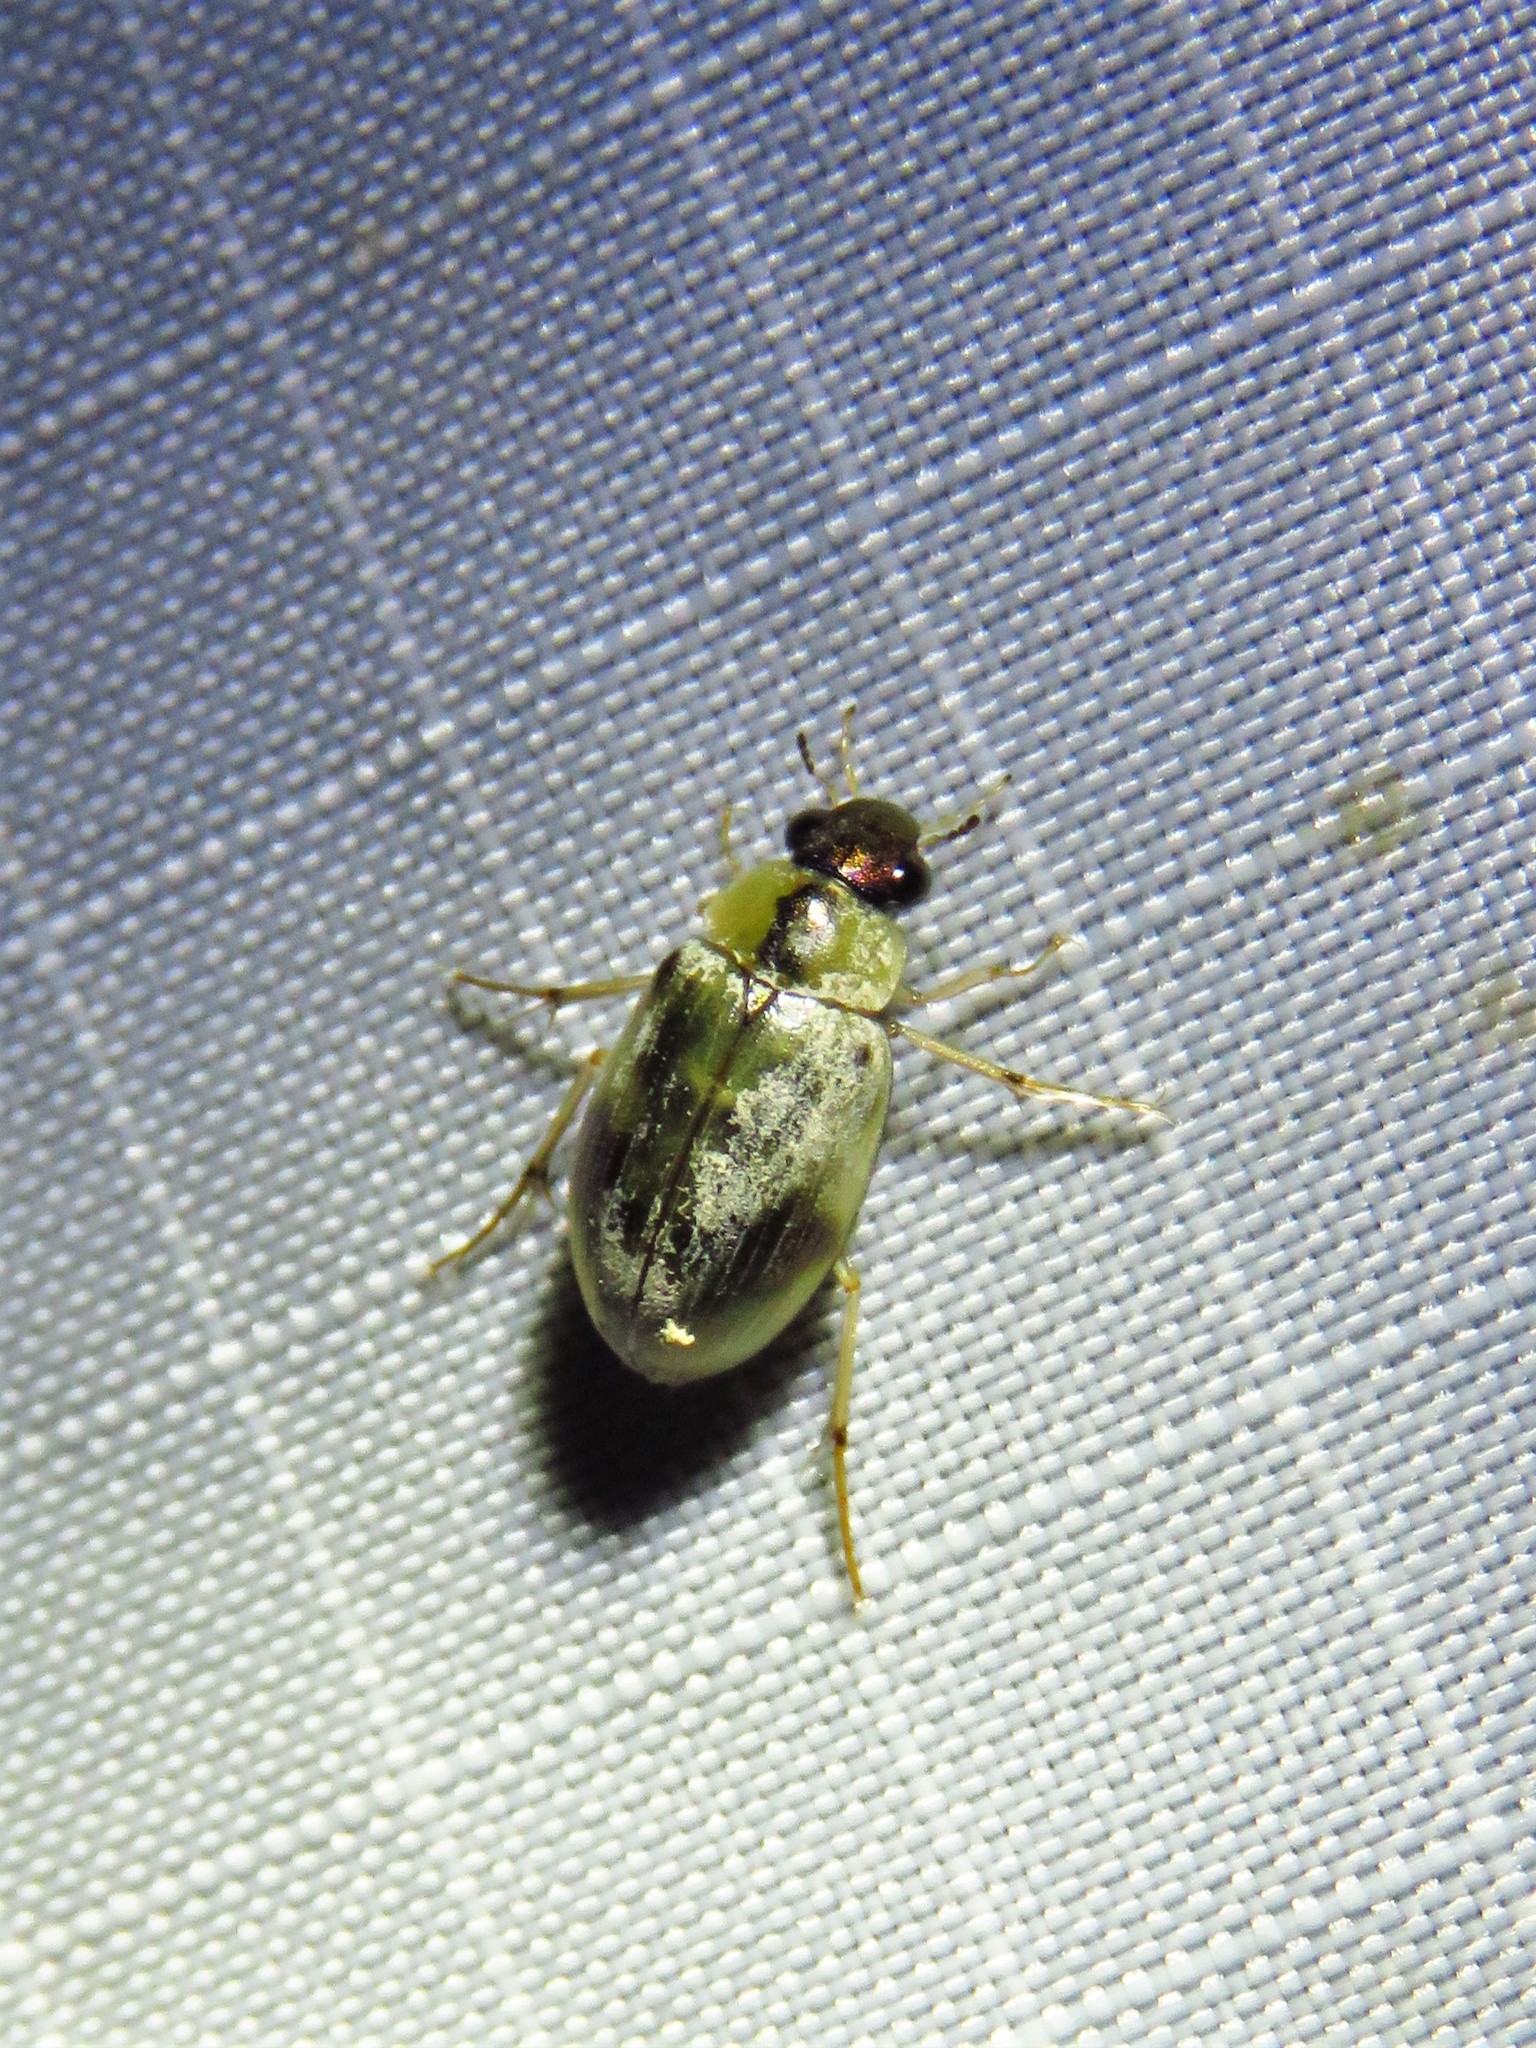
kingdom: Animalia
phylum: Arthropoda
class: Insecta
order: Coleoptera
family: Hydrophilidae
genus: Berosus
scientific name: Berosus miles
